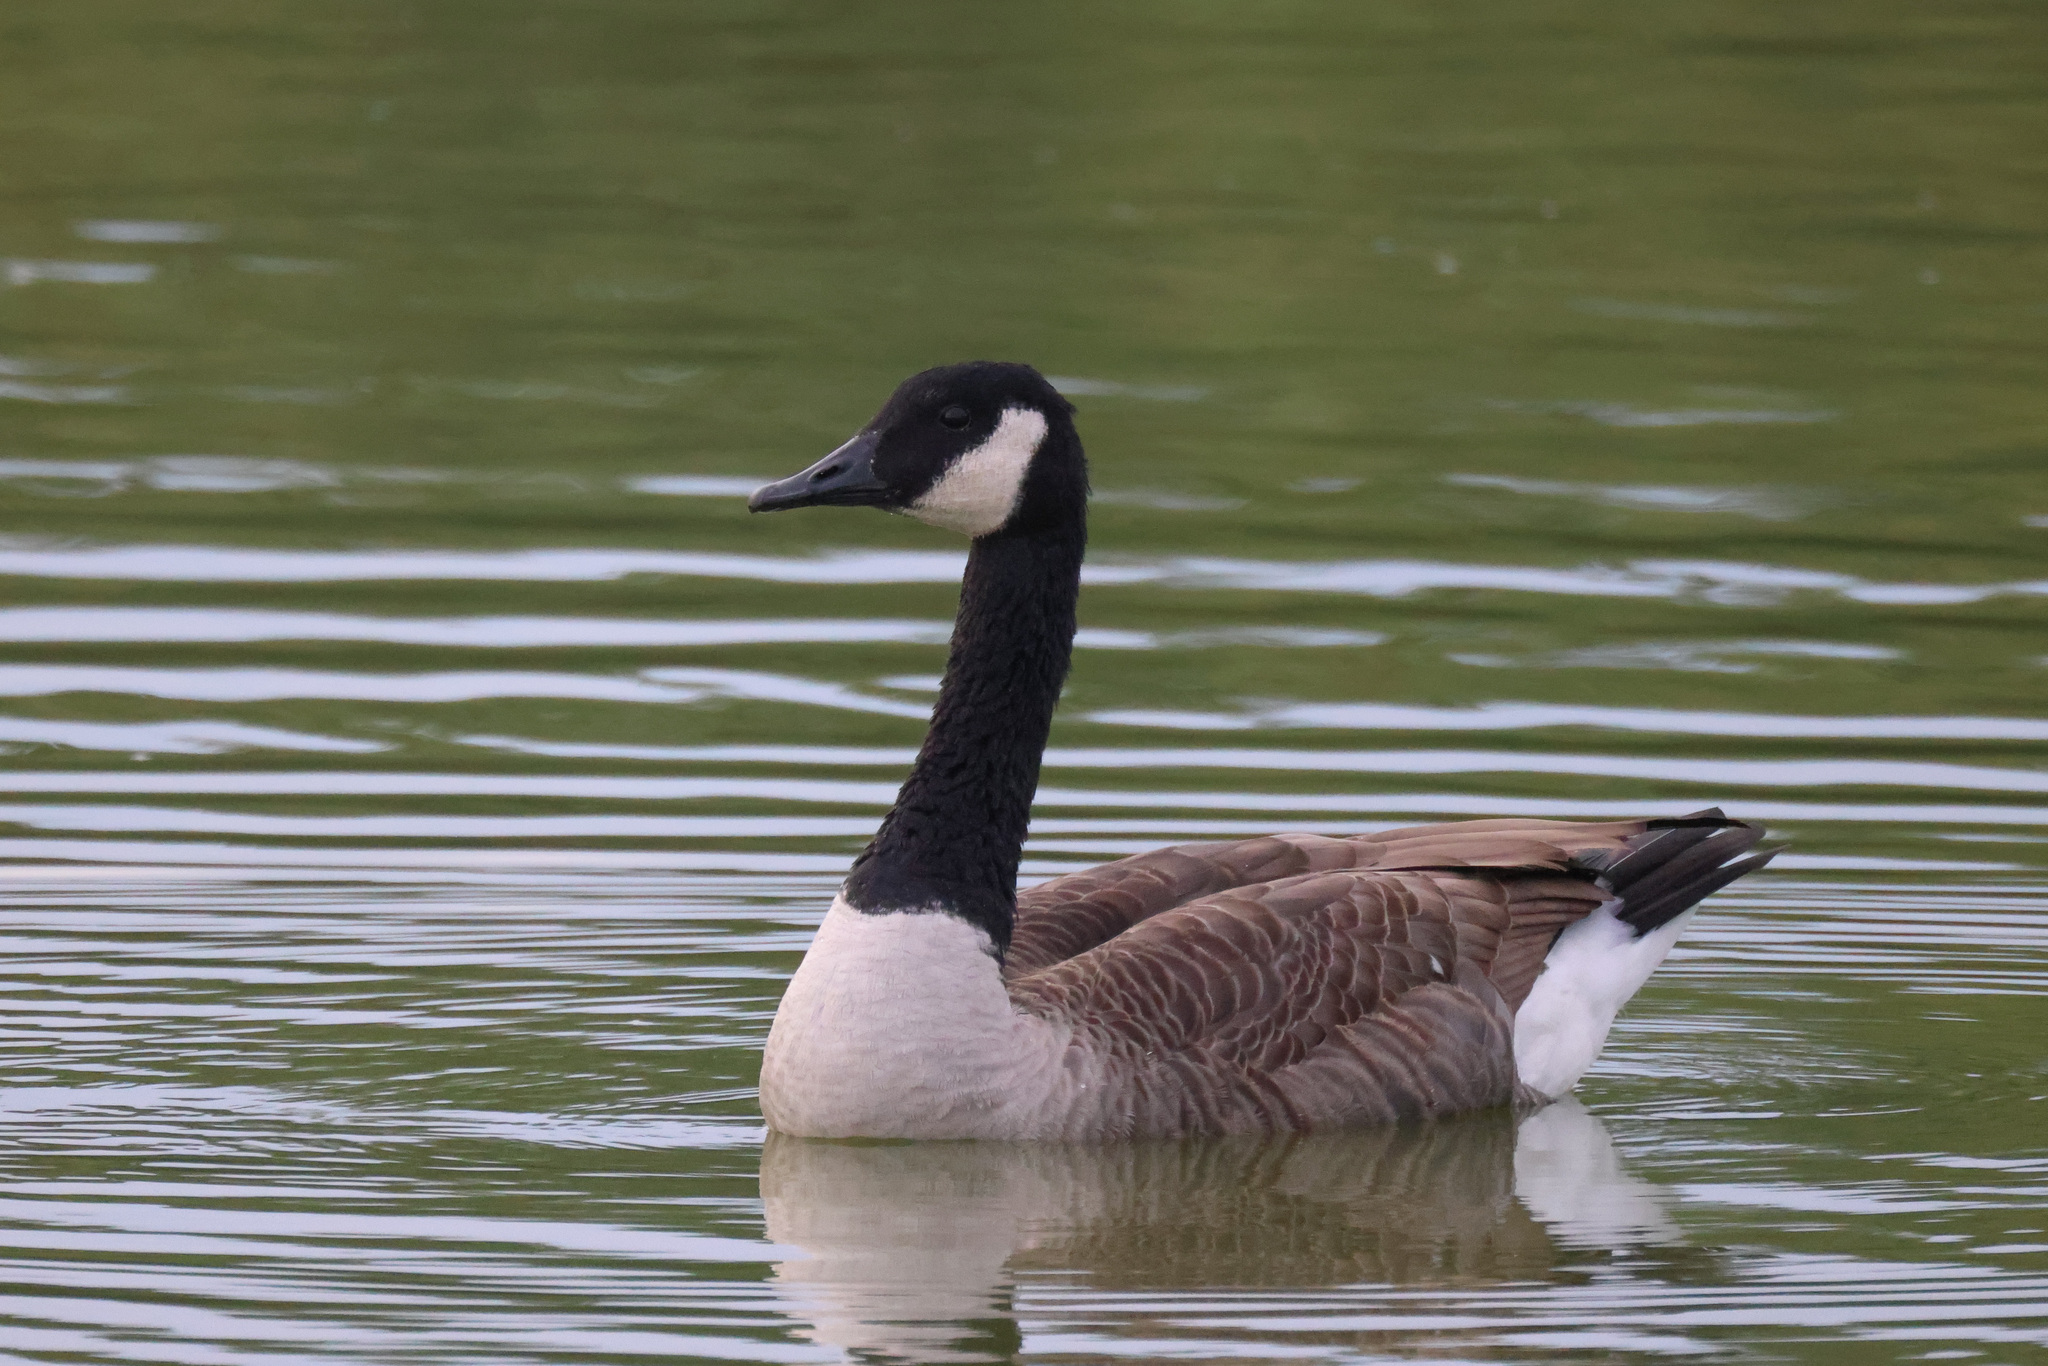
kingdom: Animalia
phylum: Chordata
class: Aves
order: Anseriformes
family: Anatidae
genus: Branta
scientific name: Branta canadensis
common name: Canada goose
